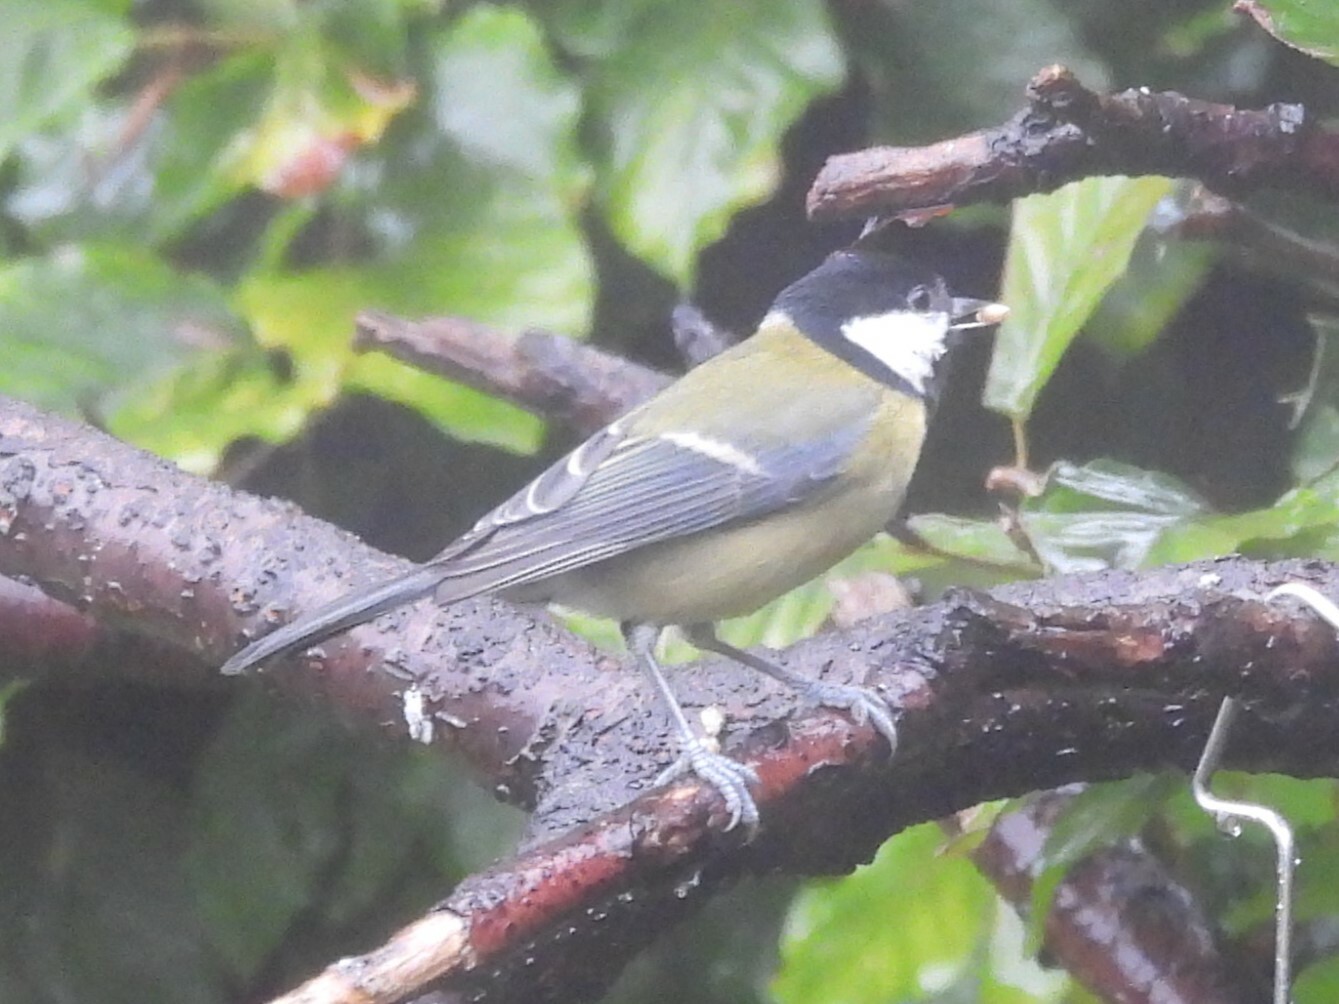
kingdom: Animalia
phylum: Chordata
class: Aves
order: Passeriformes
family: Paridae
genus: Parus
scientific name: Parus major
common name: Great tit
